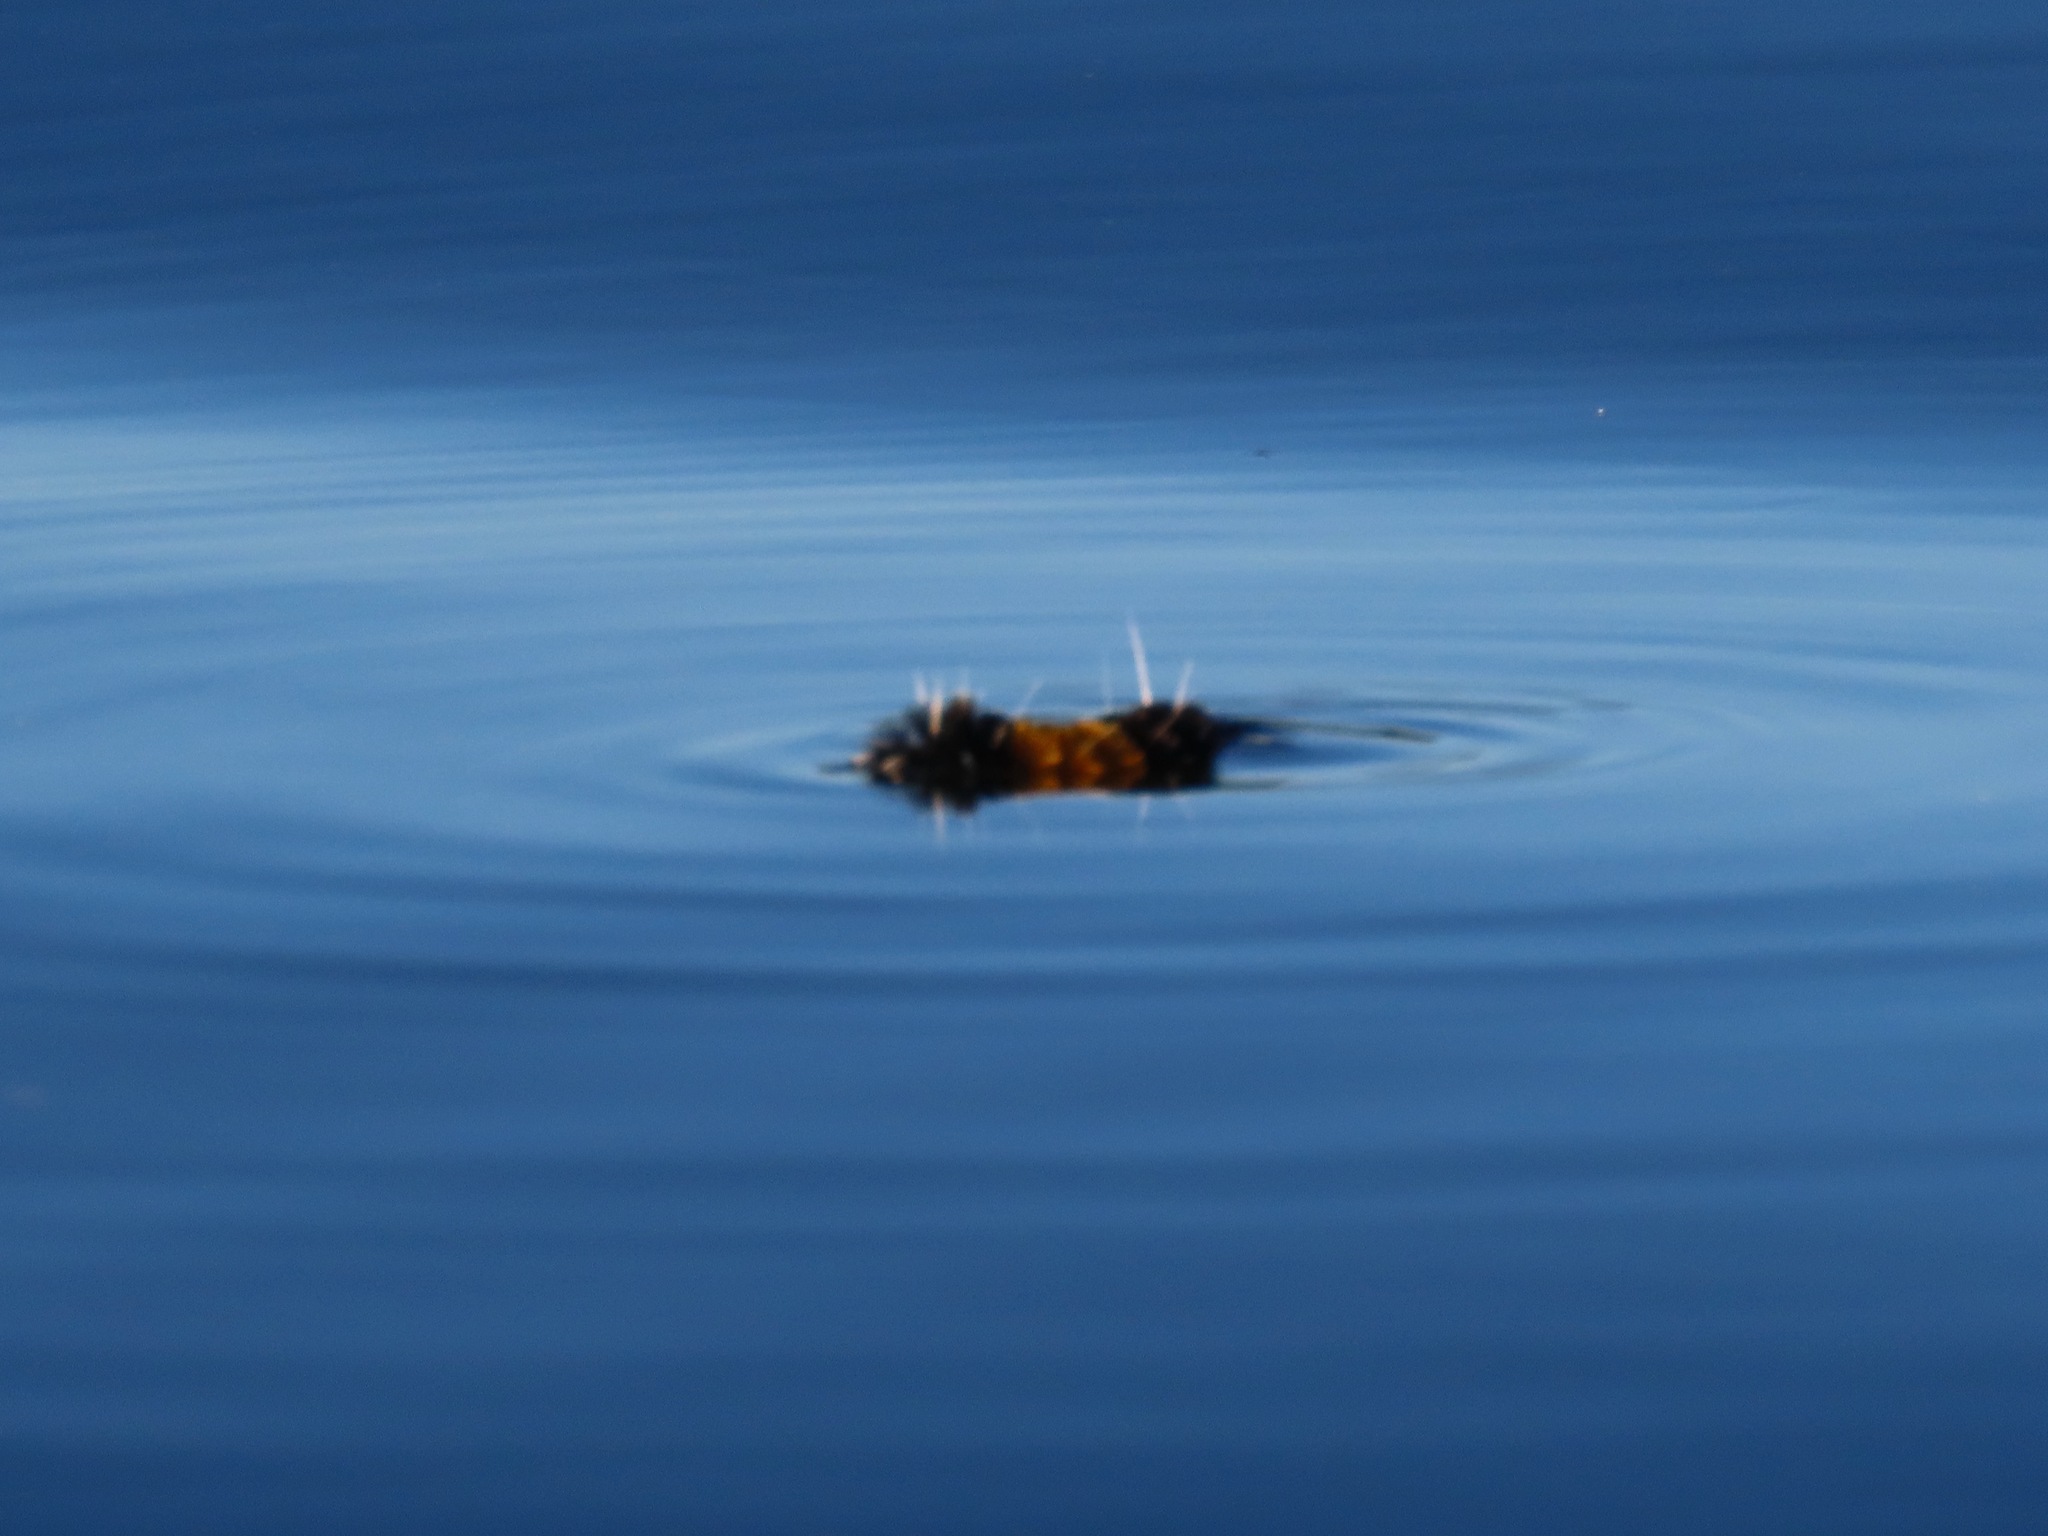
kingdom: Animalia
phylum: Arthropoda
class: Insecta
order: Lepidoptera
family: Erebidae
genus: Lophocampa
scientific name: Lophocampa maculata
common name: Spotted tussock moth
